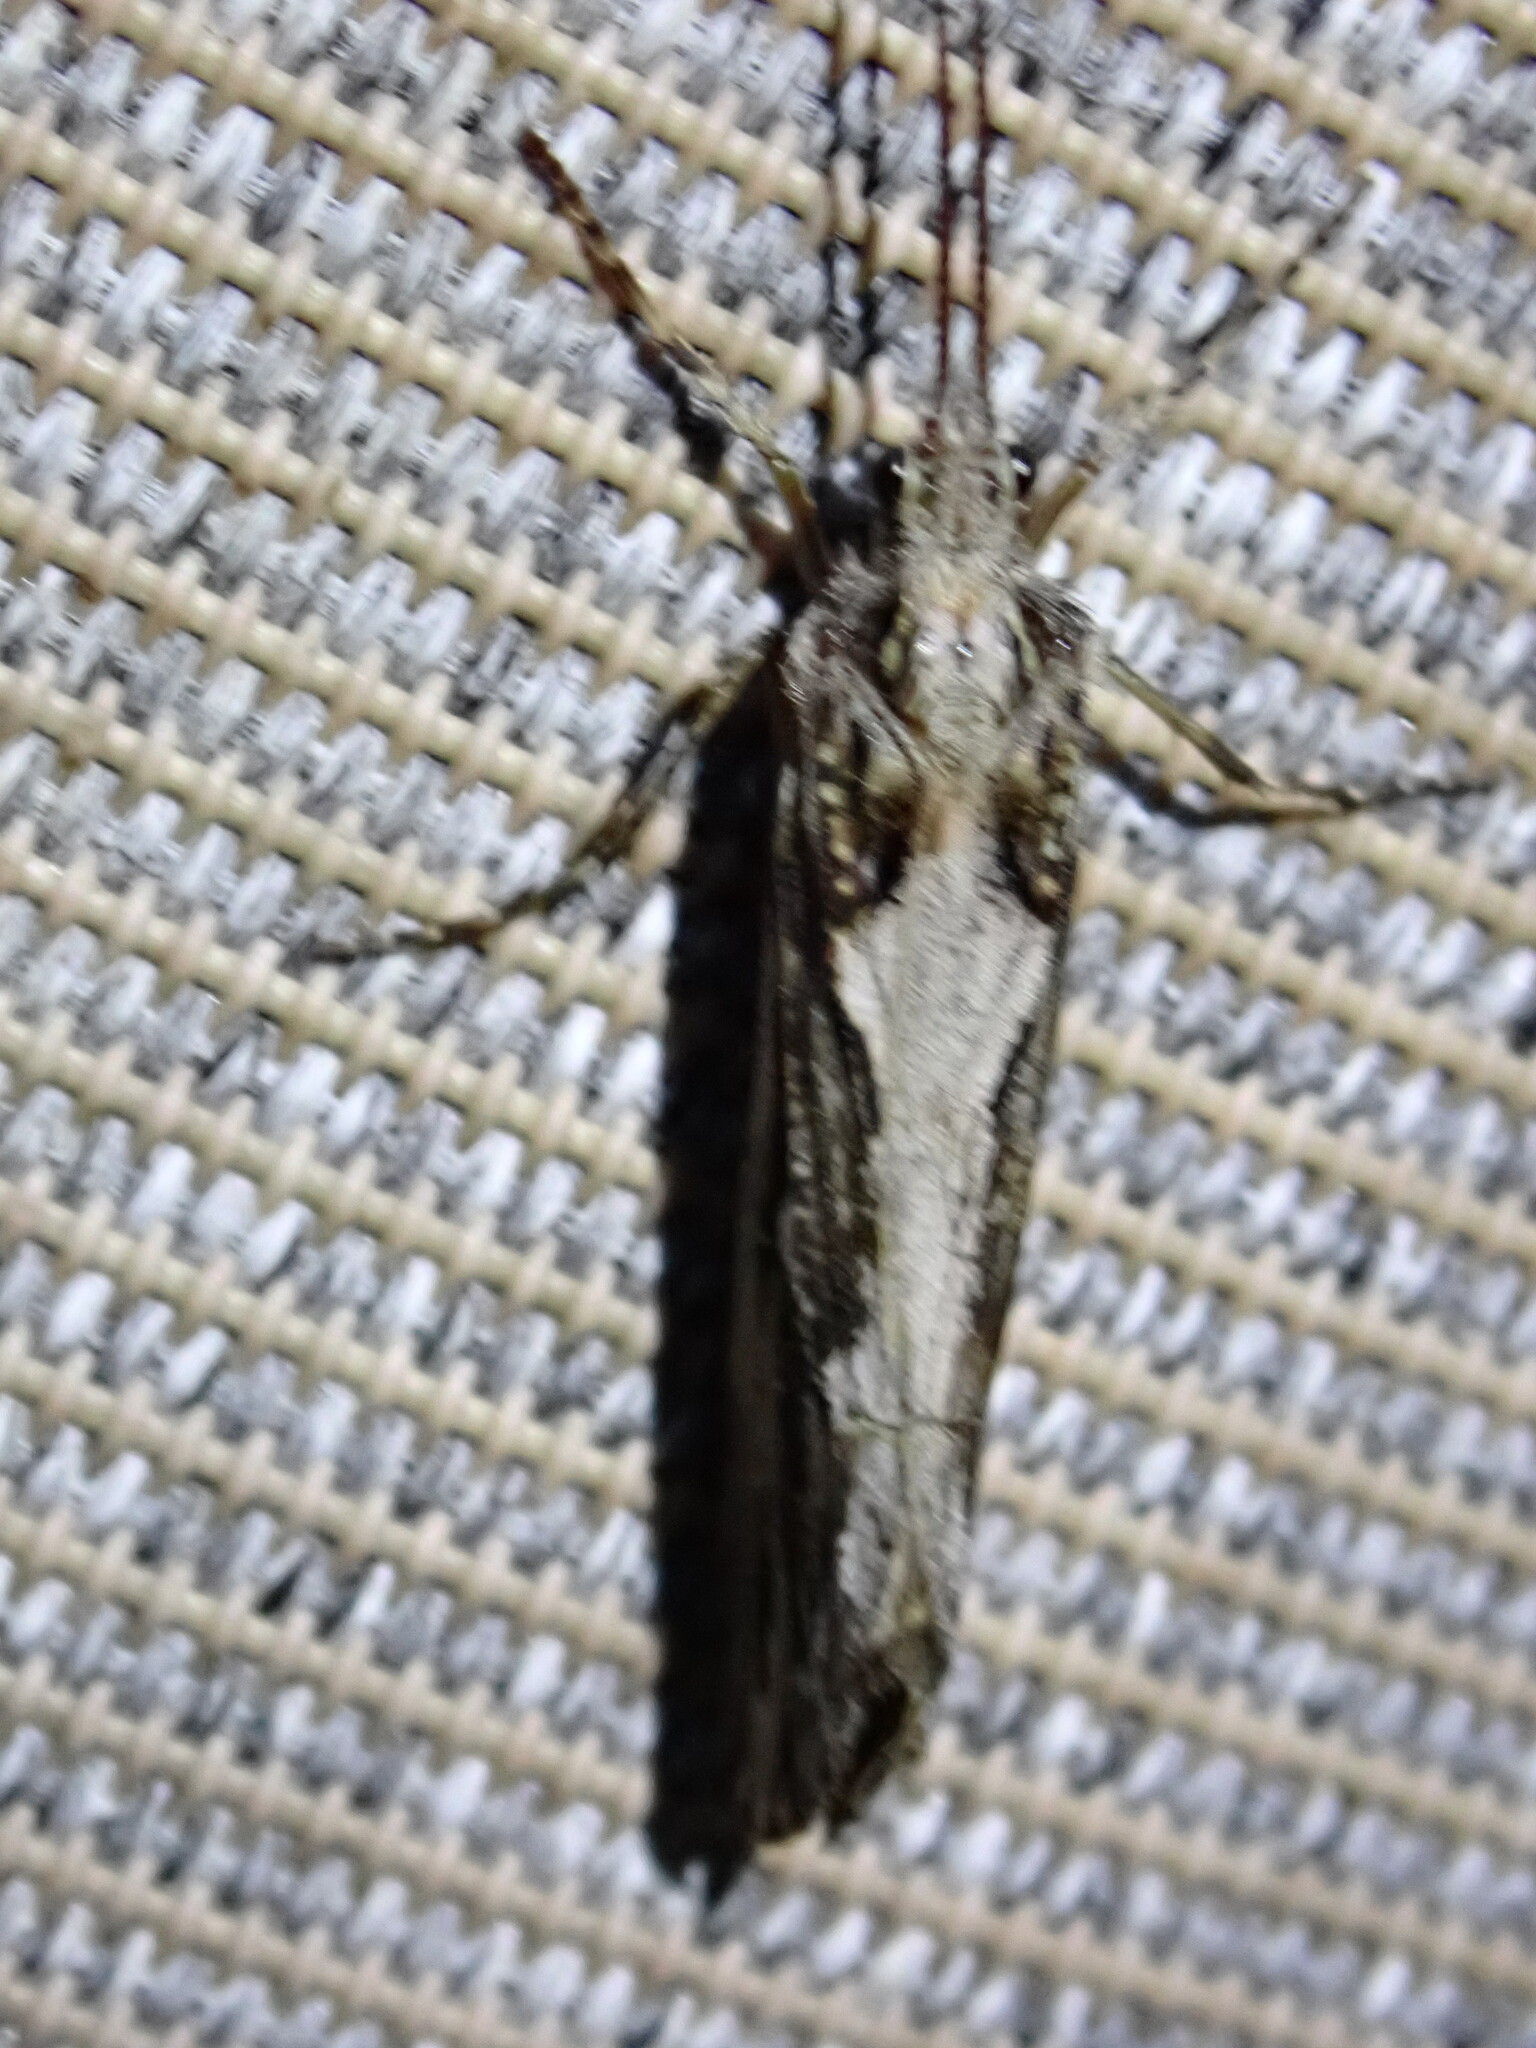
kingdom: Animalia
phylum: Arthropoda
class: Insecta
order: Trichoptera
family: Phryganeidae
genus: Phryganea
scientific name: Phryganea sayi
